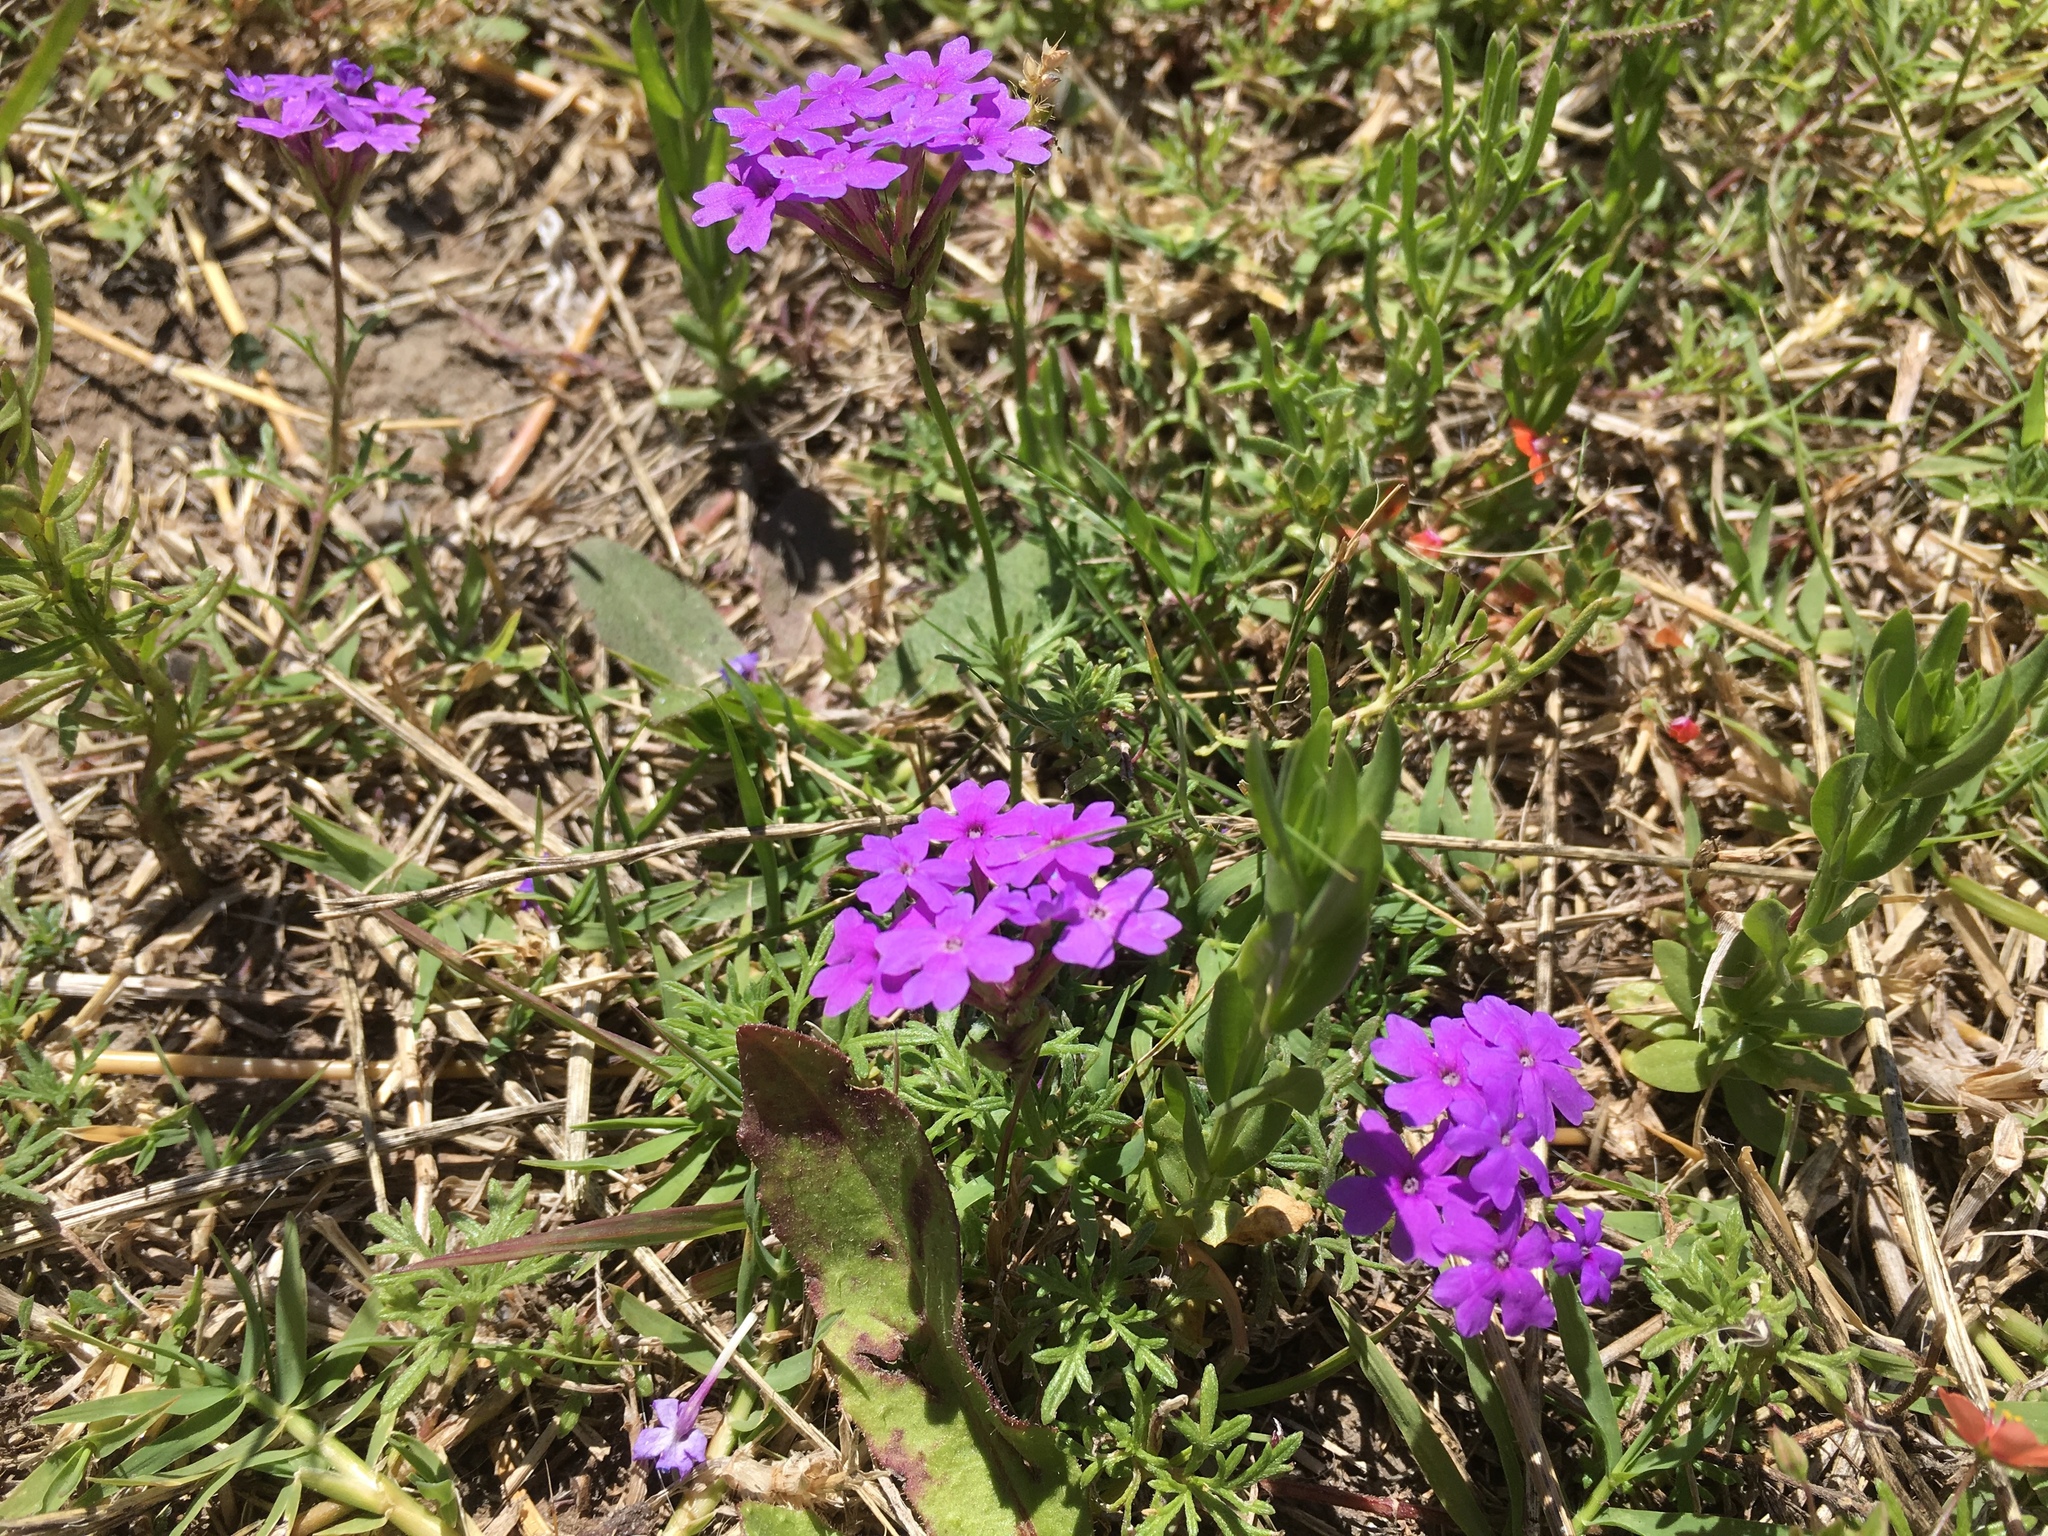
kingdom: Plantae
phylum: Tracheophyta
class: Magnoliopsida
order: Lamiales
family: Verbenaceae
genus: Verbena
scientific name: Verbena tenera
